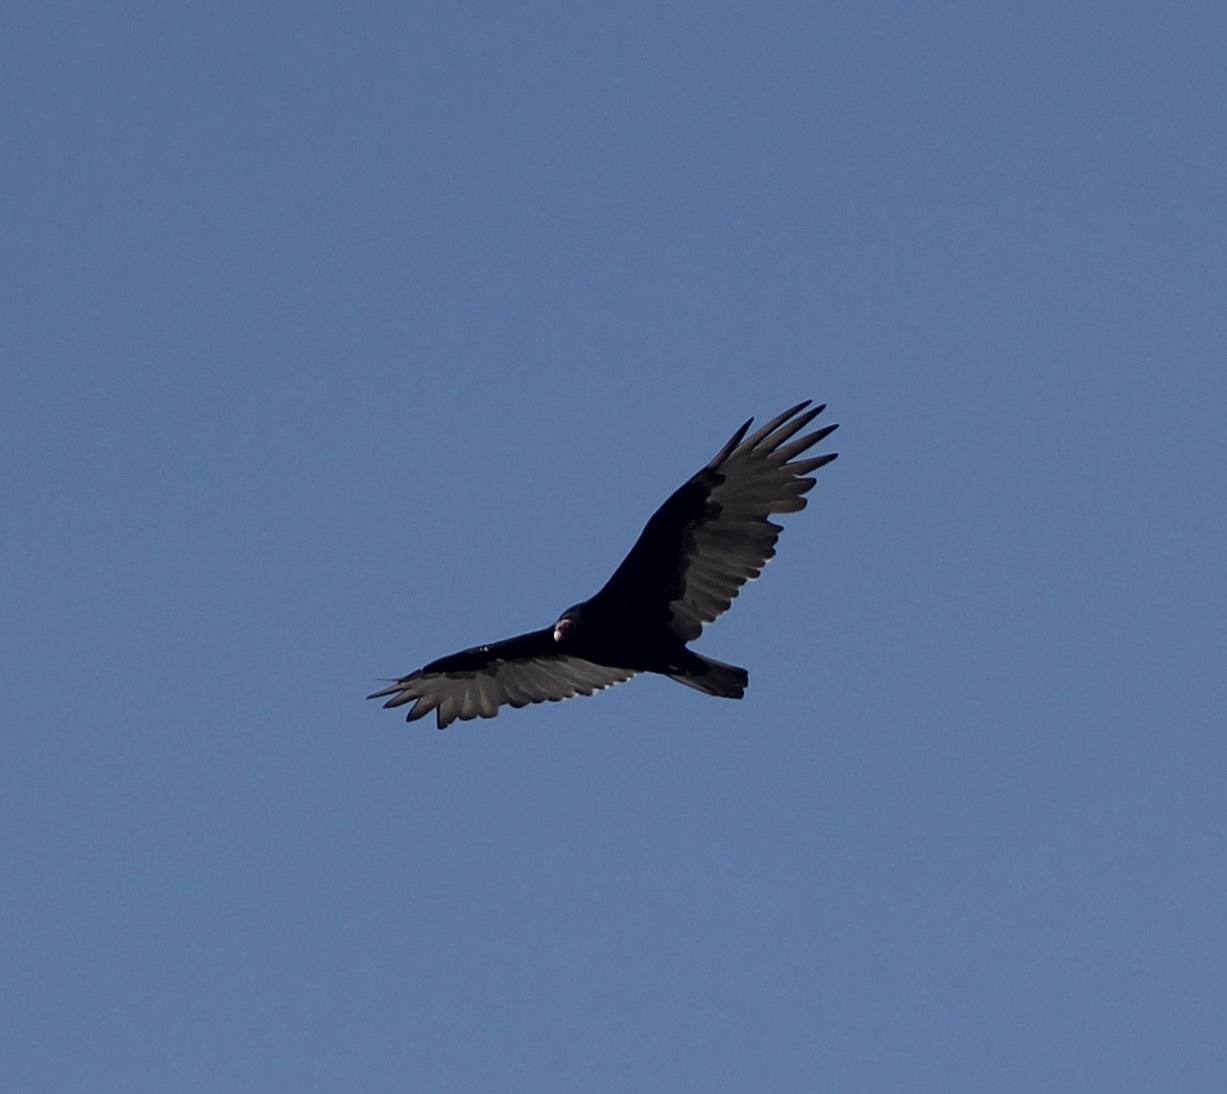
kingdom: Animalia
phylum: Chordata
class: Aves
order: Accipitriformes
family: Cathartidae
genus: Cathartes
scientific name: Cathartes aura
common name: Turkey vulture
